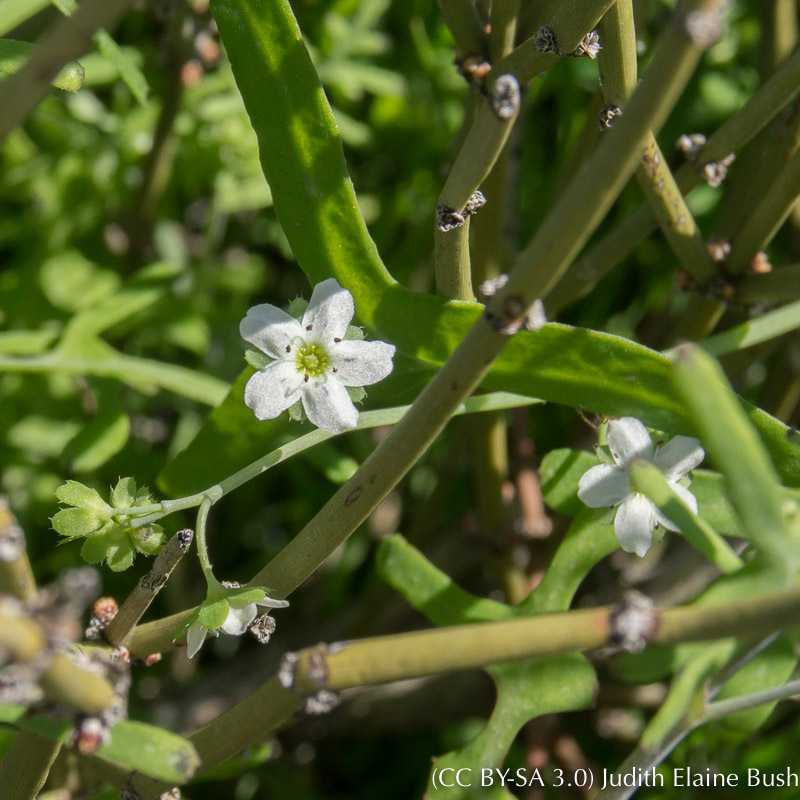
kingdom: Plantae
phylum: Tracheophyta
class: Magnoliopsida
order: Boraginales
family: Hydrophyllaceae
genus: Pholistoma
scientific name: Pholistoma membranaceum
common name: White fiesta-flower
